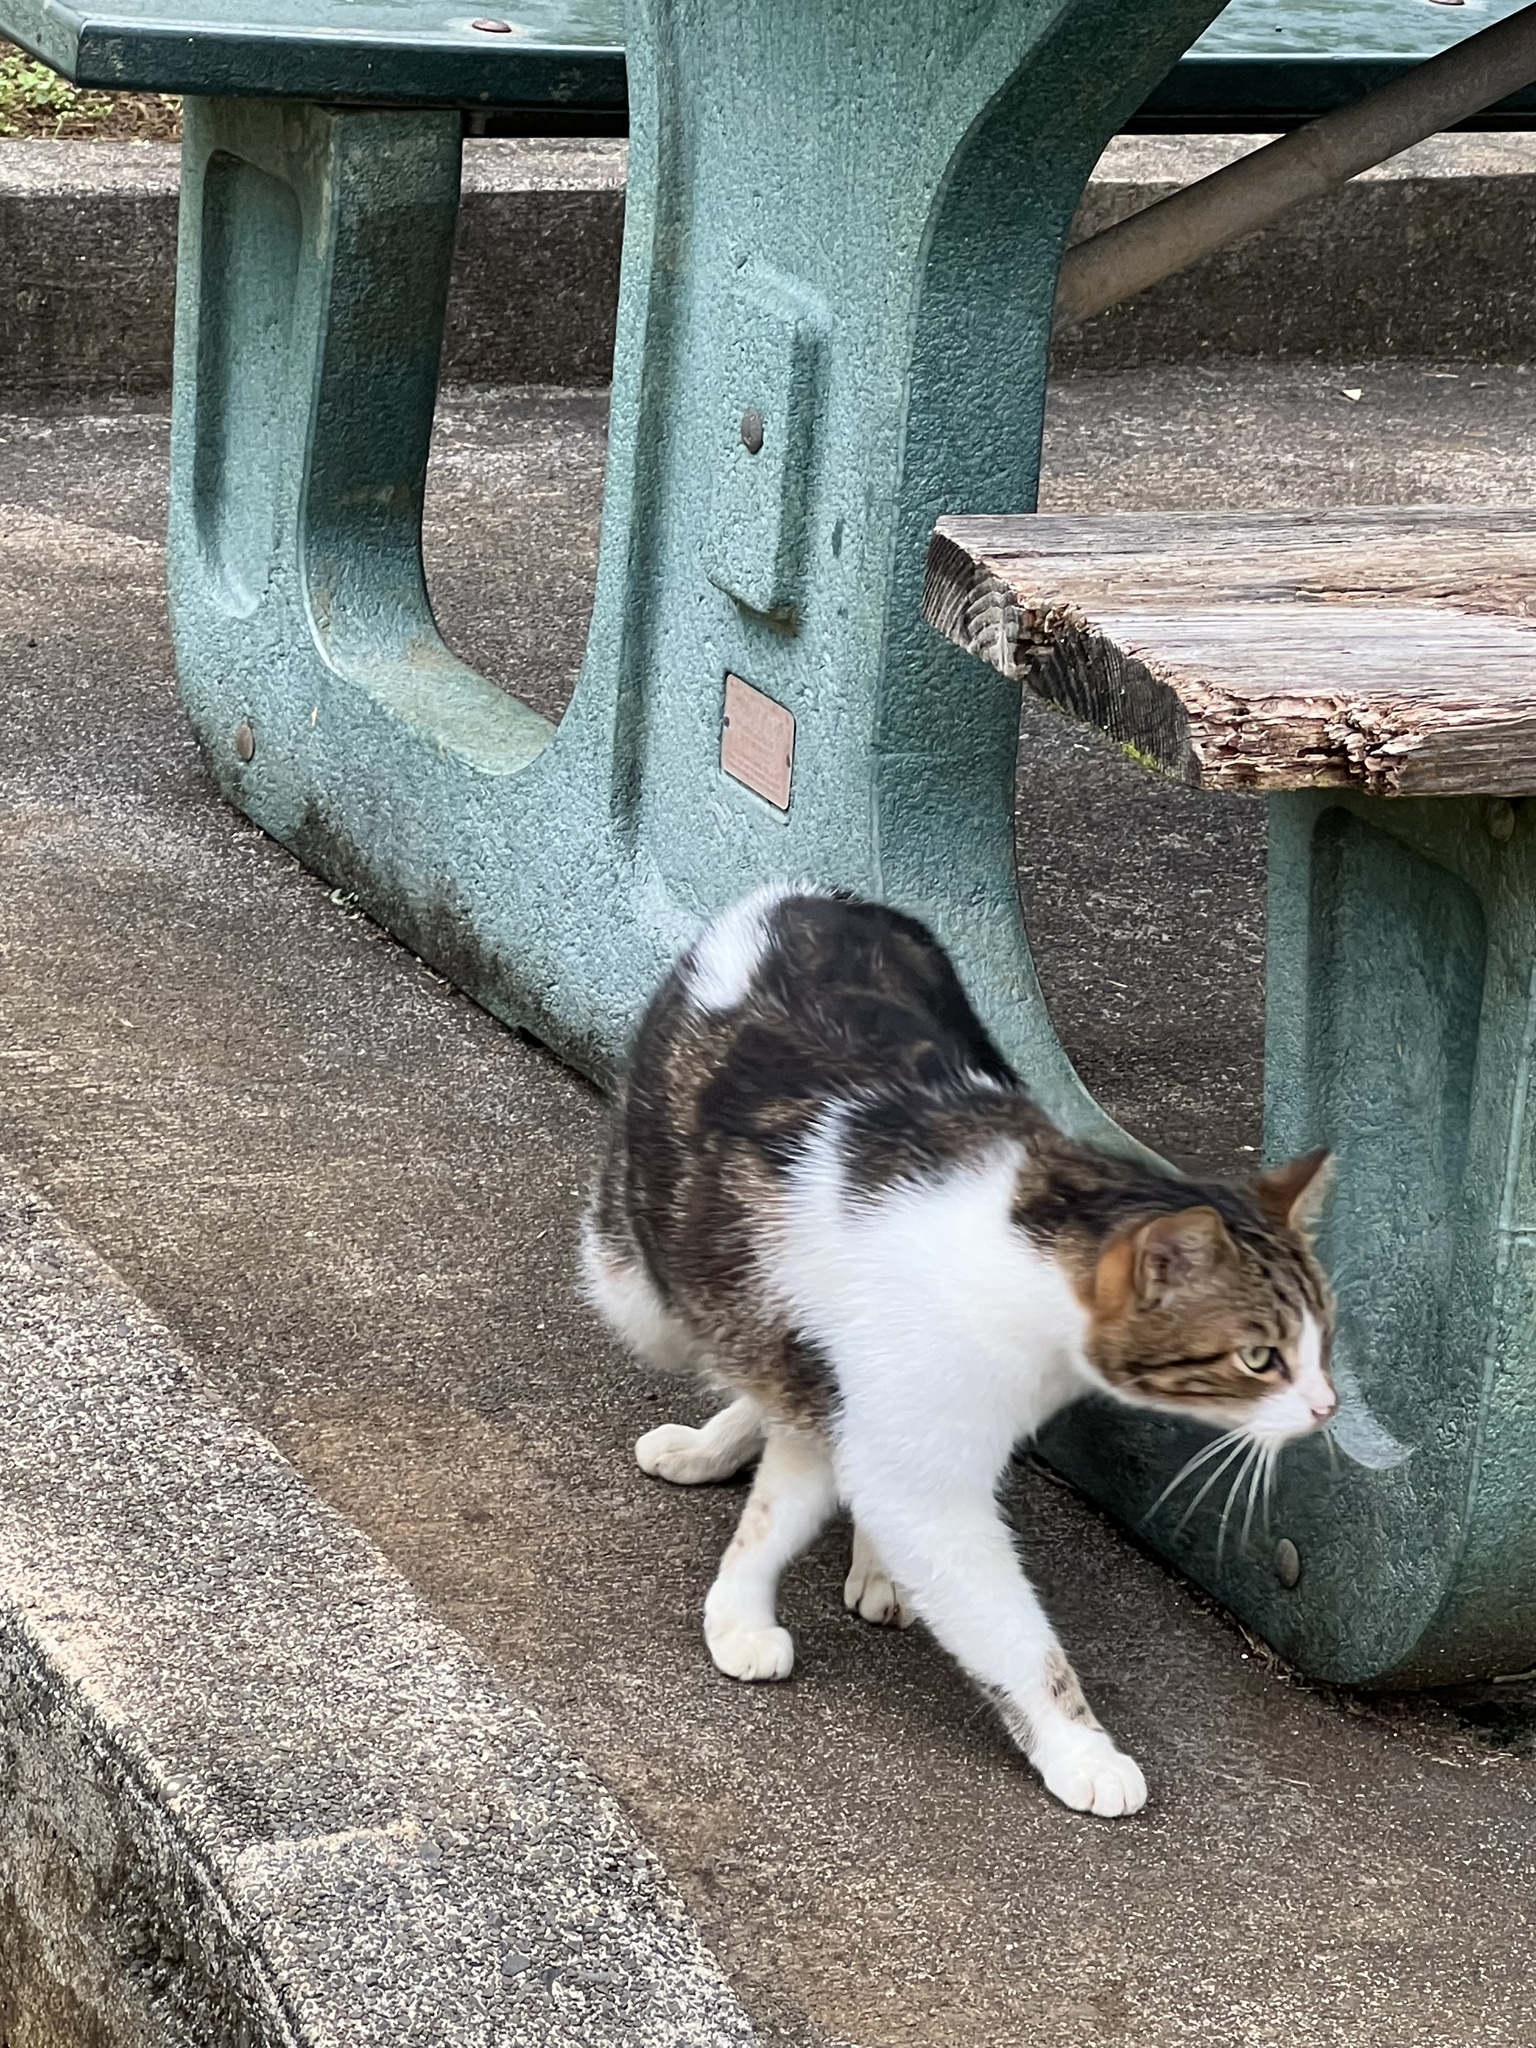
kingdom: Animalia
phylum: Chordata
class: Mammalia
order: Carnivora
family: Felidae
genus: Felis
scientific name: Felis catus
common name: Domestic cat
